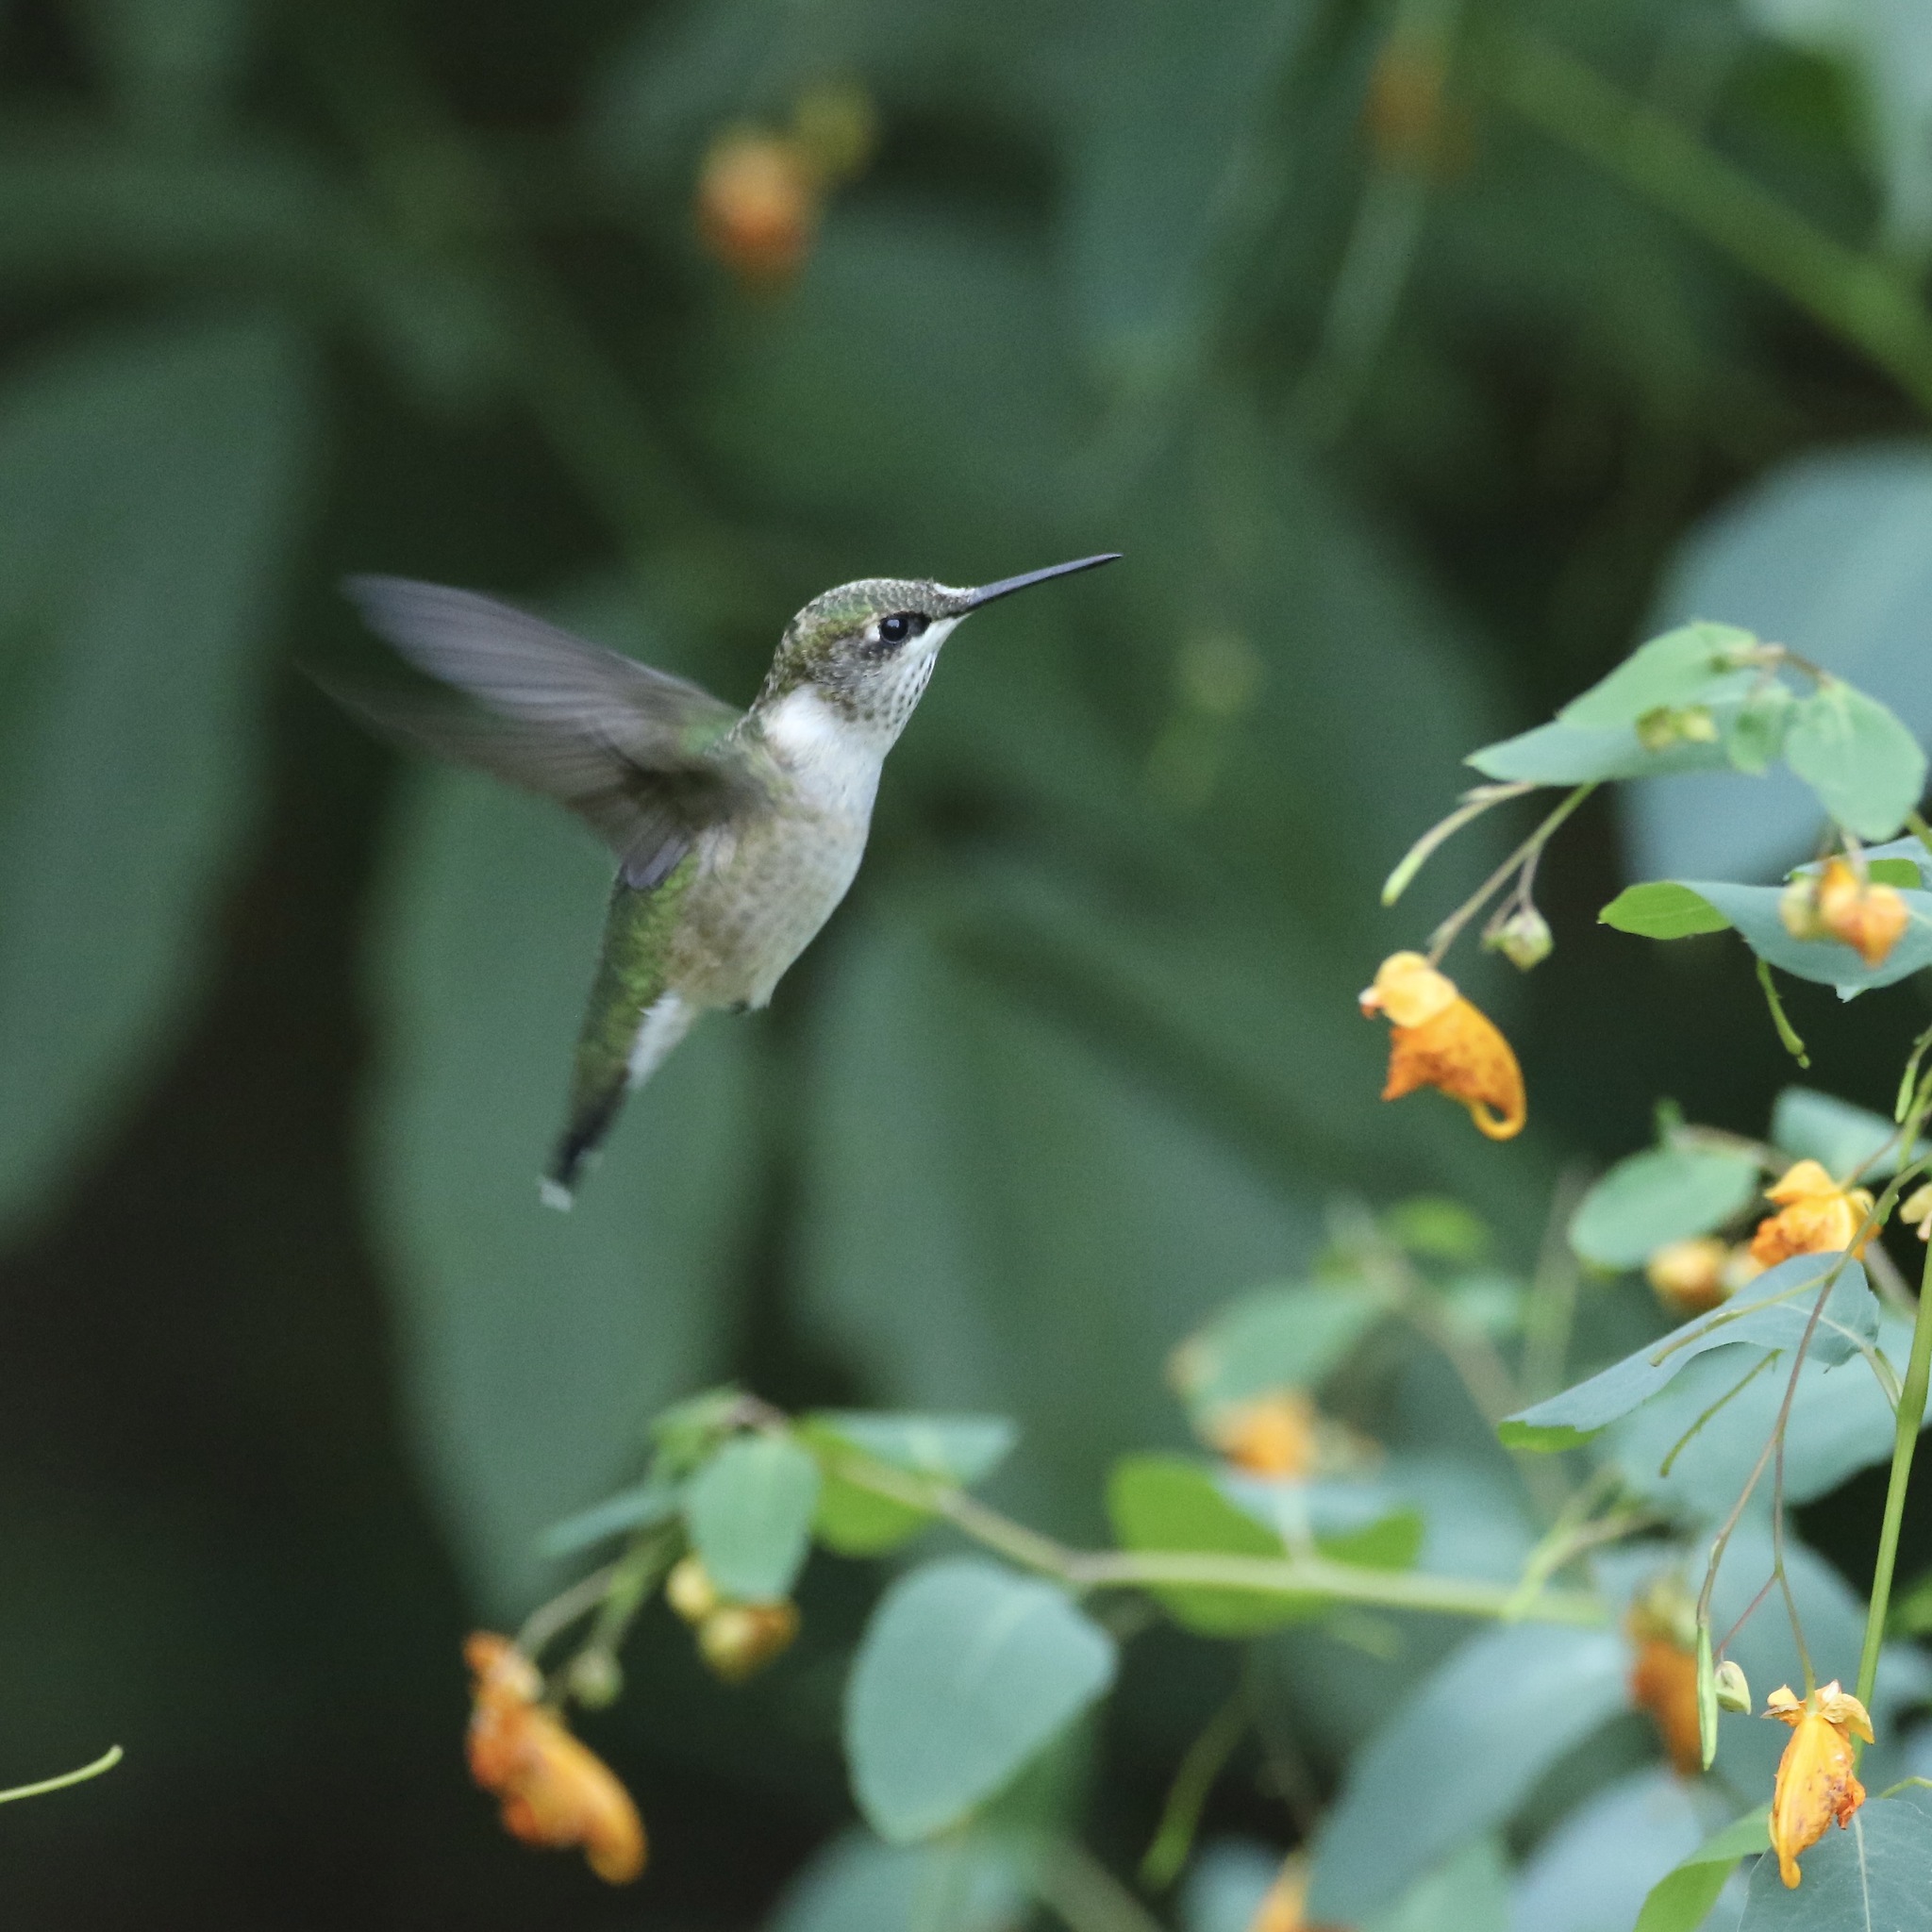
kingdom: Animalia
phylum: Chordata
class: Aves
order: Apodiformes
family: Trochilidae
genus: Archilochus
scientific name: Archilochus colubris
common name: Ruby-throated hummingbird
